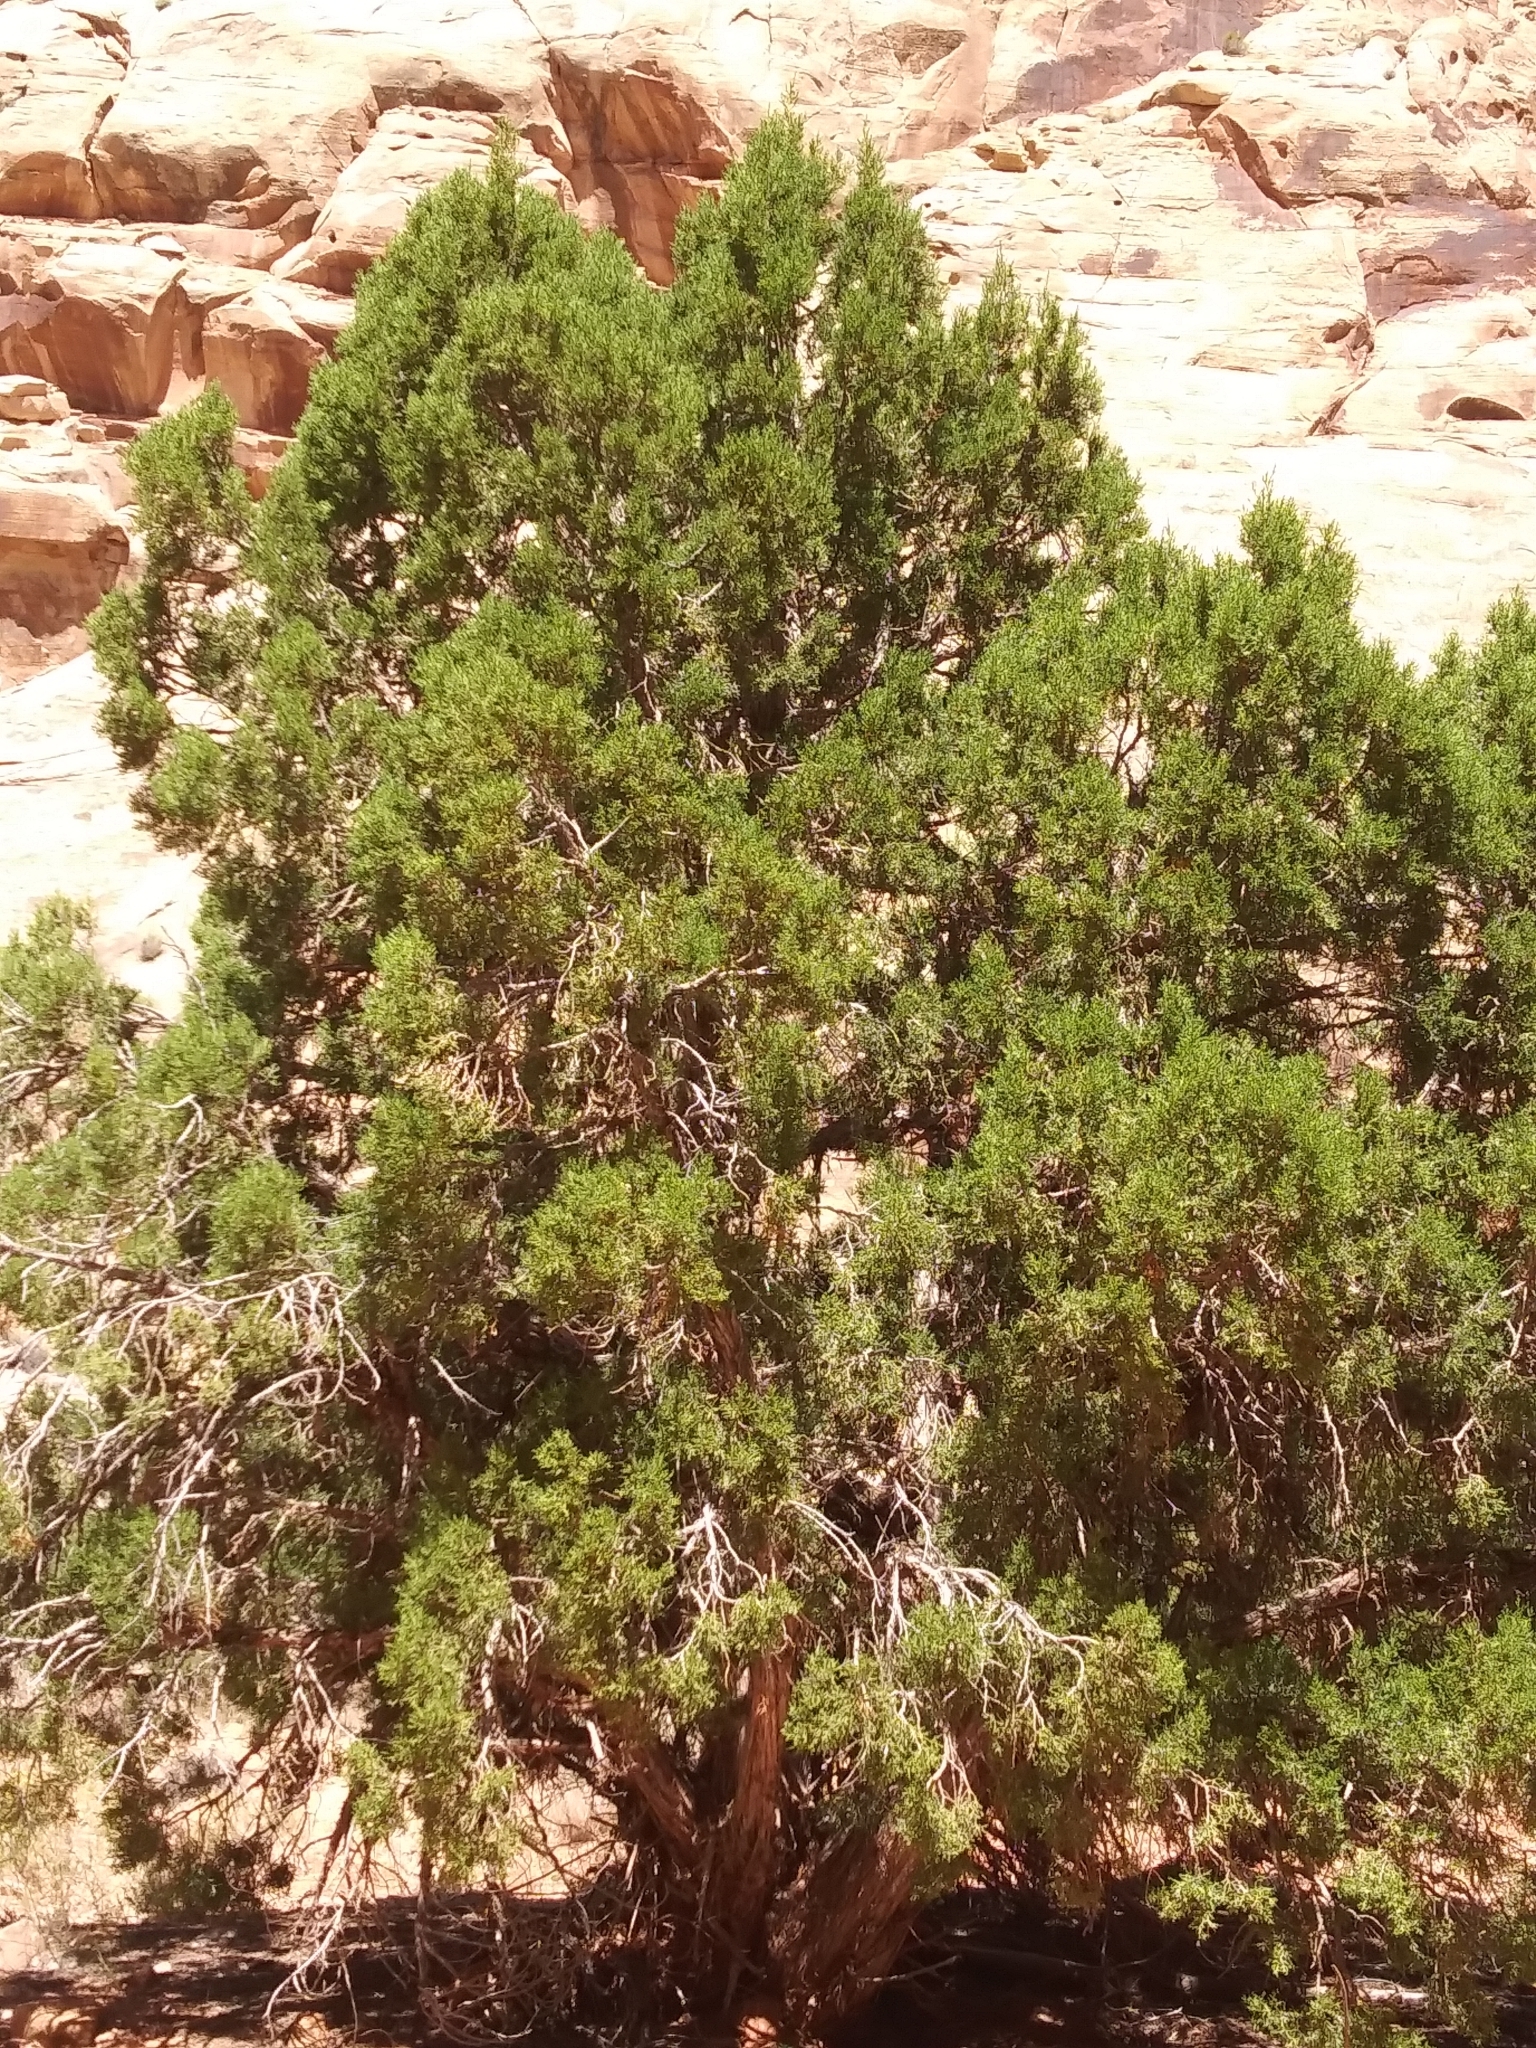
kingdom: Plantae
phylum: Tracheophyta
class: Pinopsida
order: Pinales
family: Cupressaceae
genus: Juniperus
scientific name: Juniperus osteosperma
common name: Utah juniper
